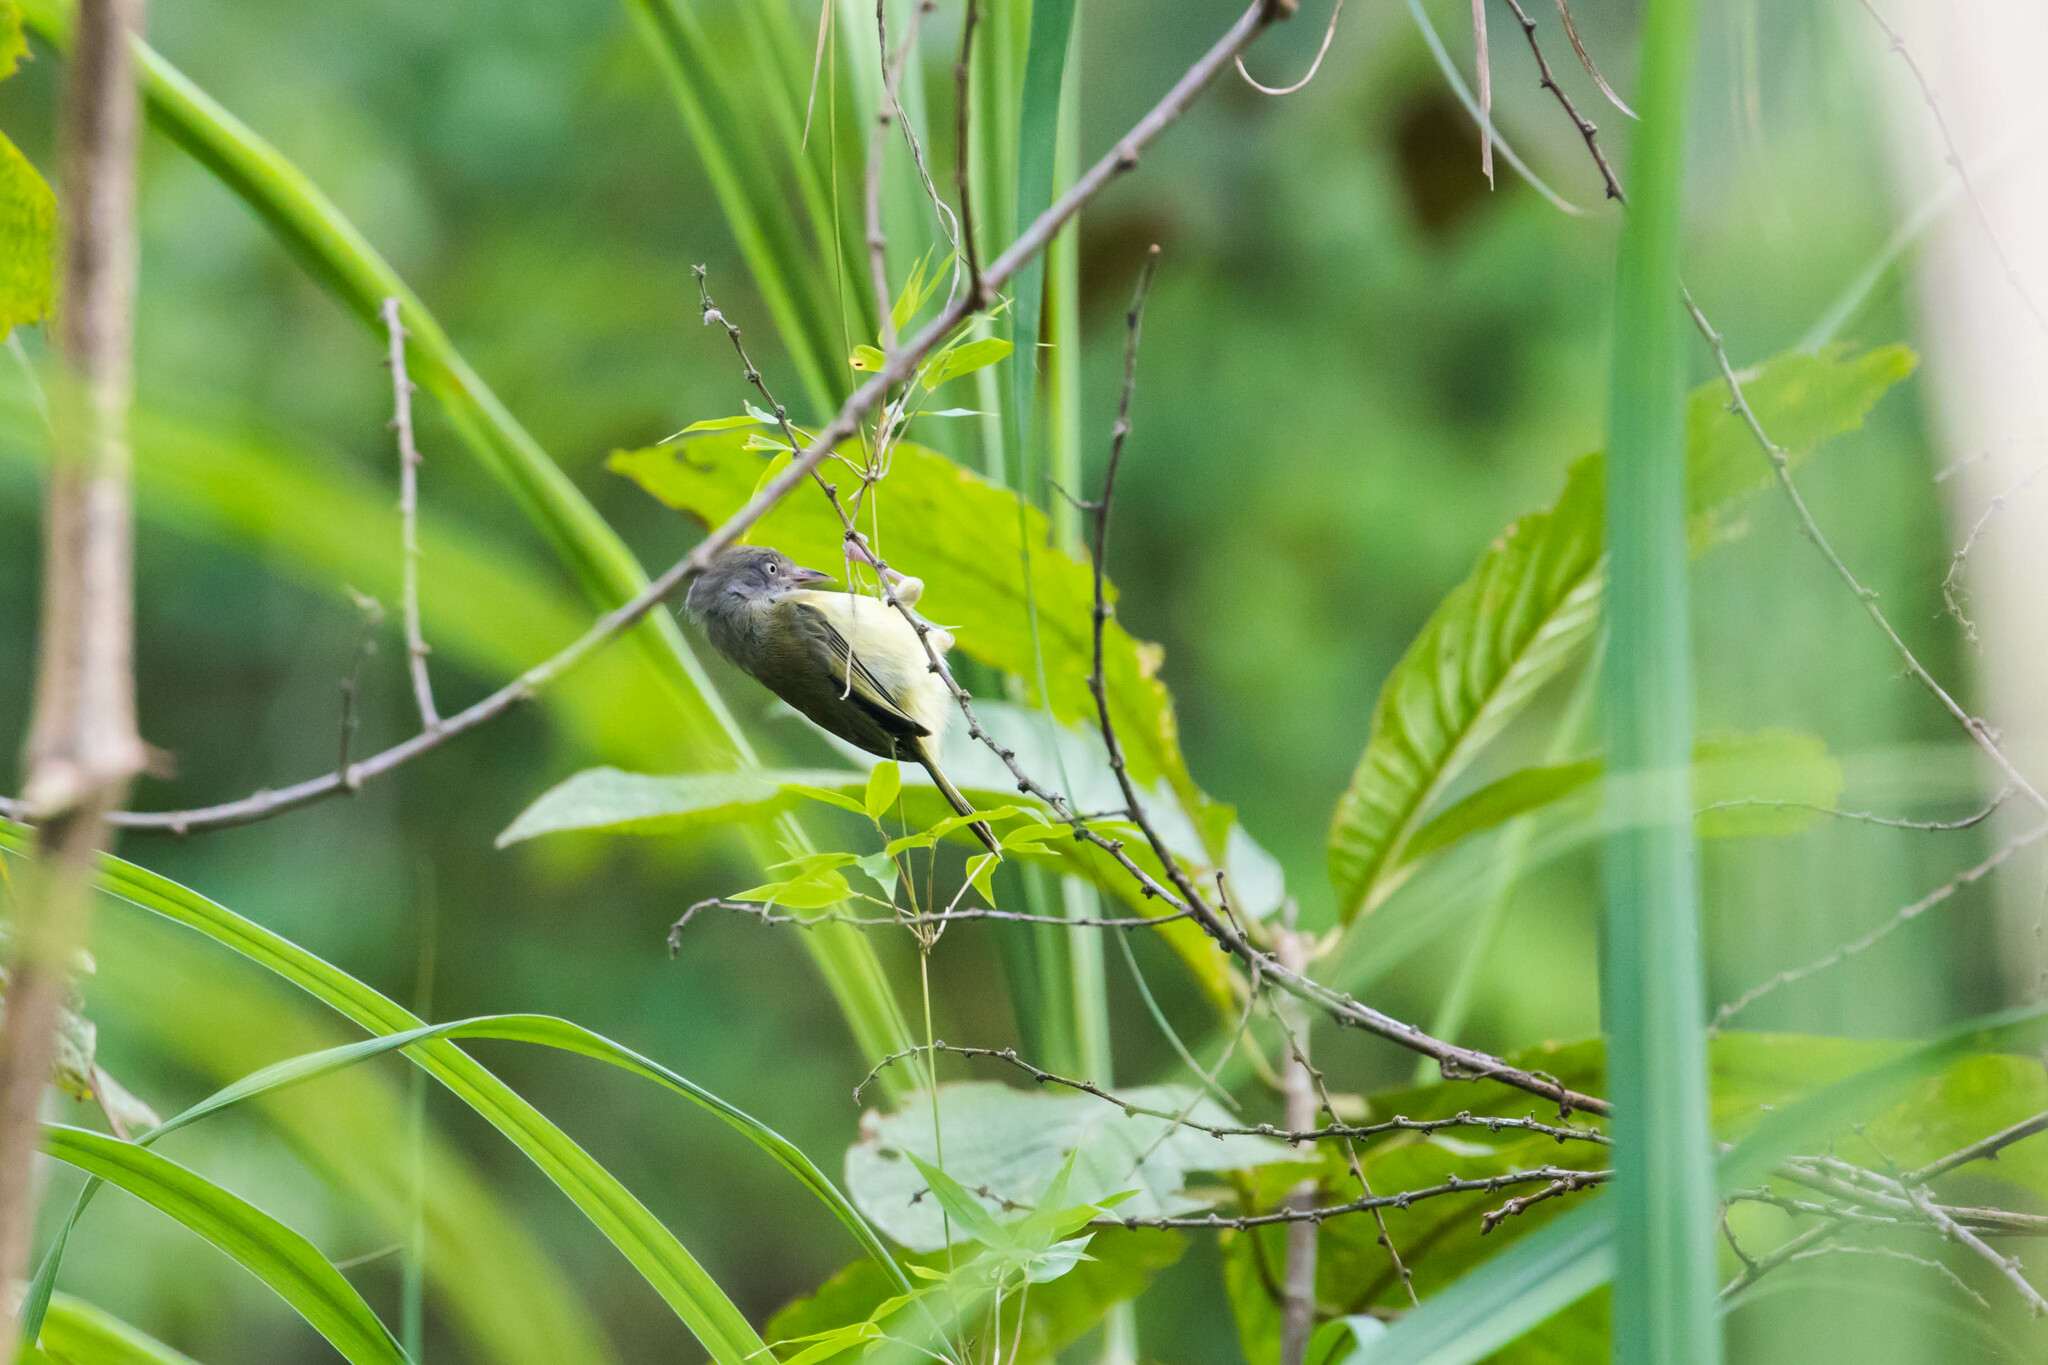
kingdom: Animalia
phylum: Chordata
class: Aves
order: Passeriformes
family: Vireonidae
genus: Hylophilus
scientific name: Hylophilus flavipes
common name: Scrub greenlet
